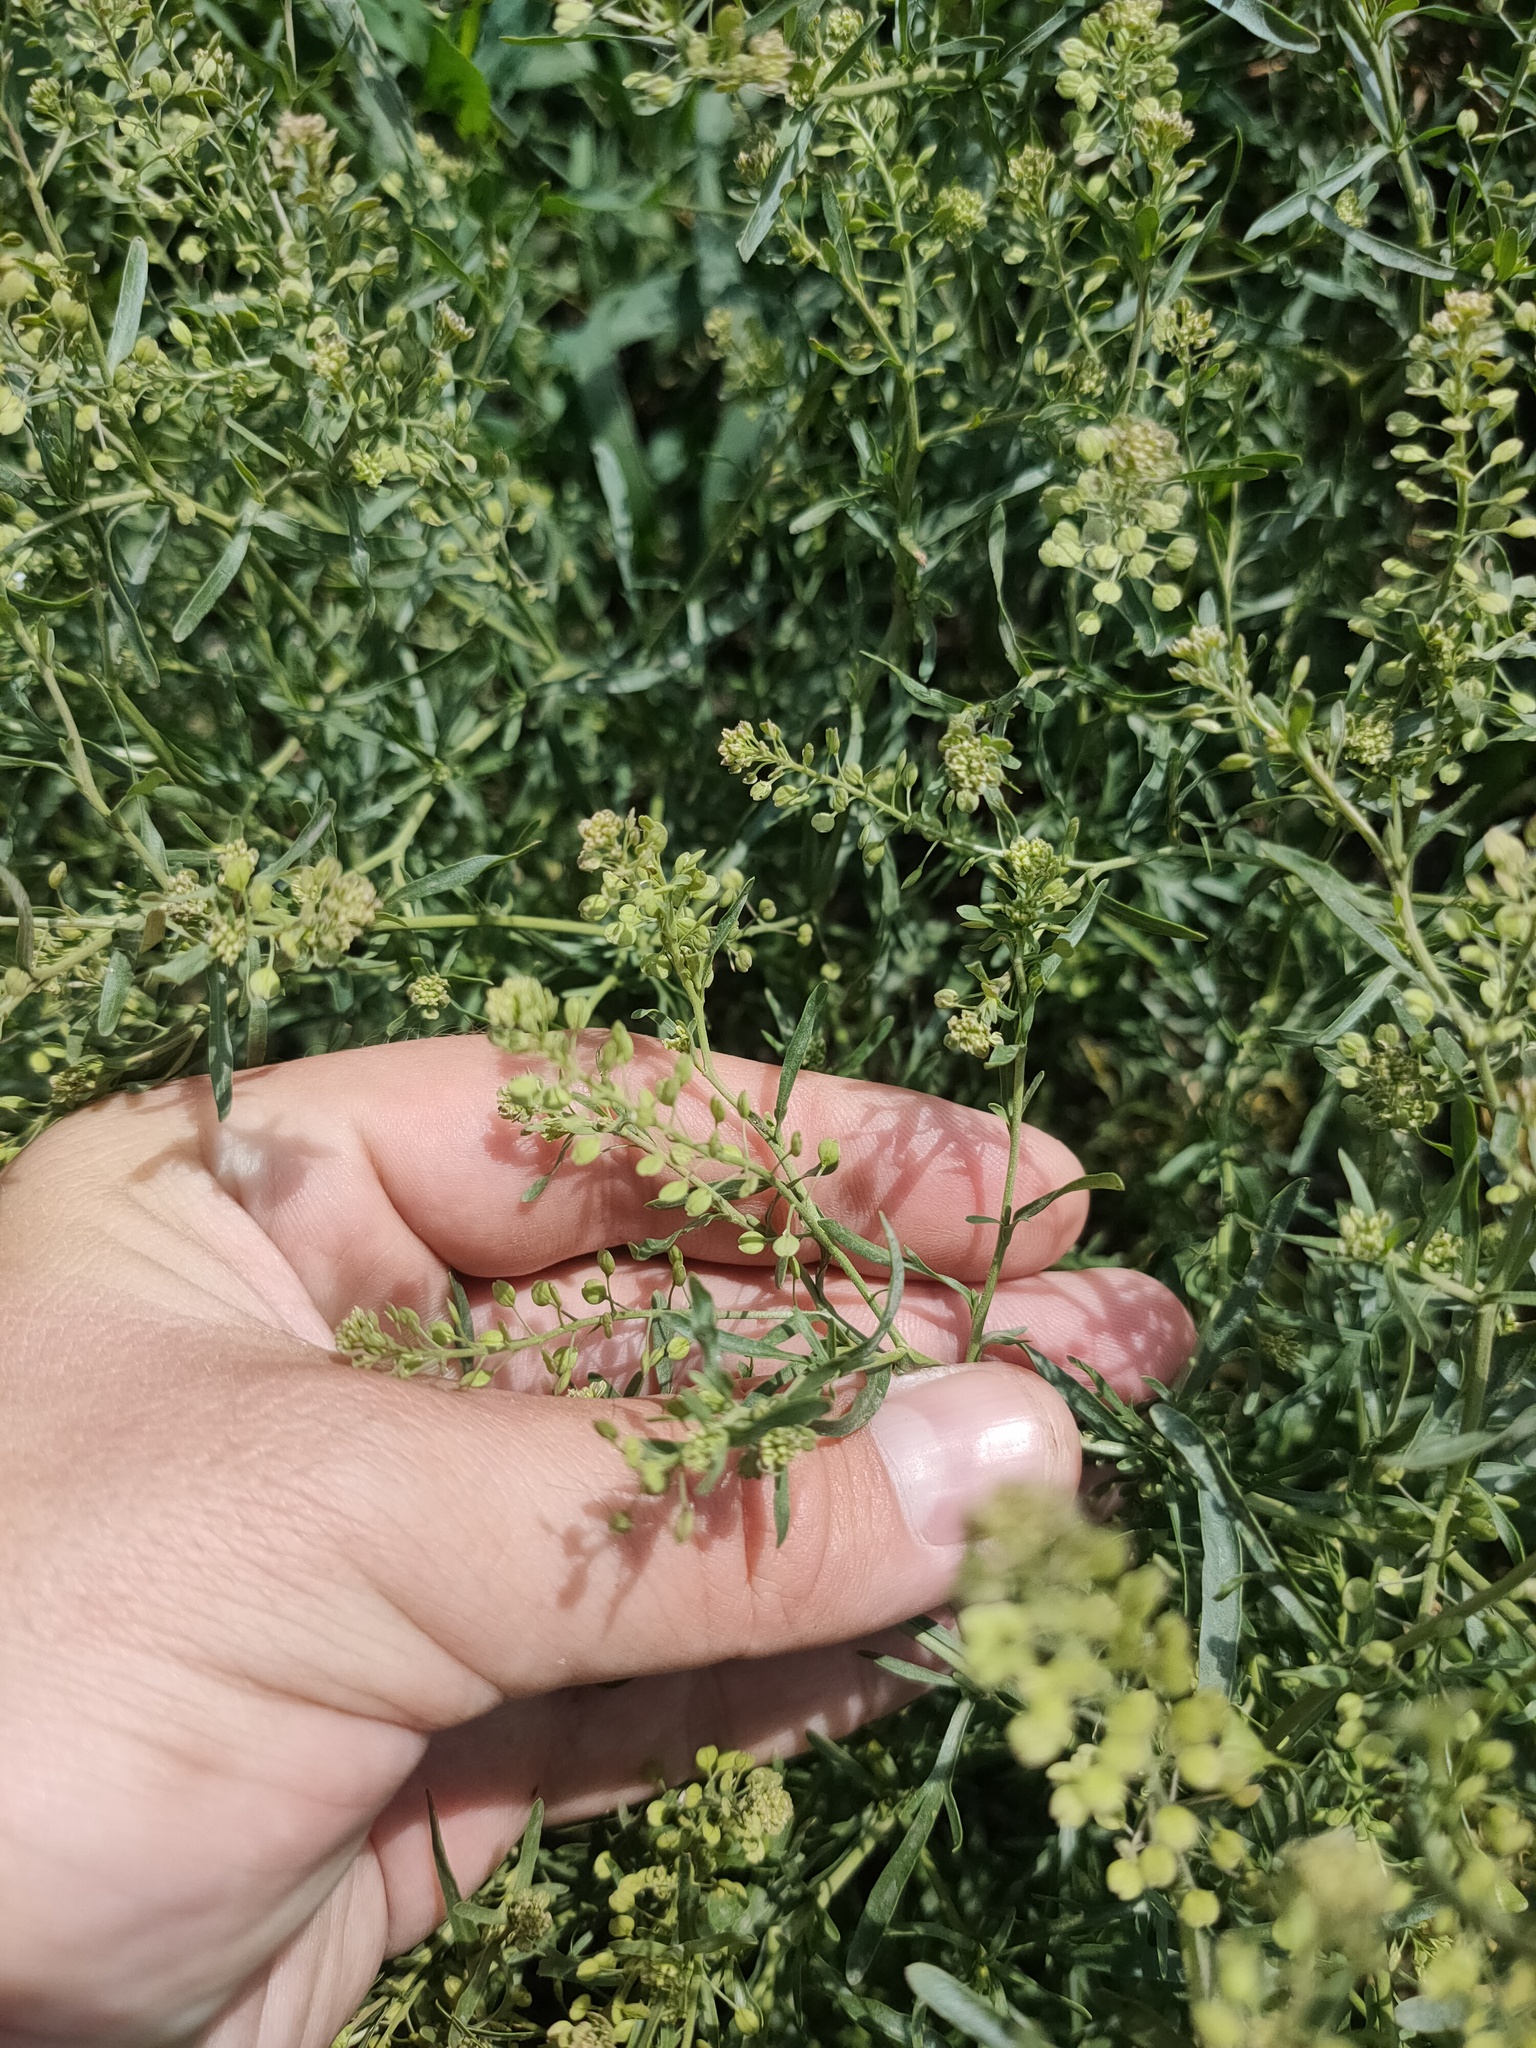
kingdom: Plantae
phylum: Tracheophyta
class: Magnoliopsida
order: Brassicales
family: Brassicaceae
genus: Lepidium
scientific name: Lepidium ruderale
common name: Narrow-leaved pepperwort
